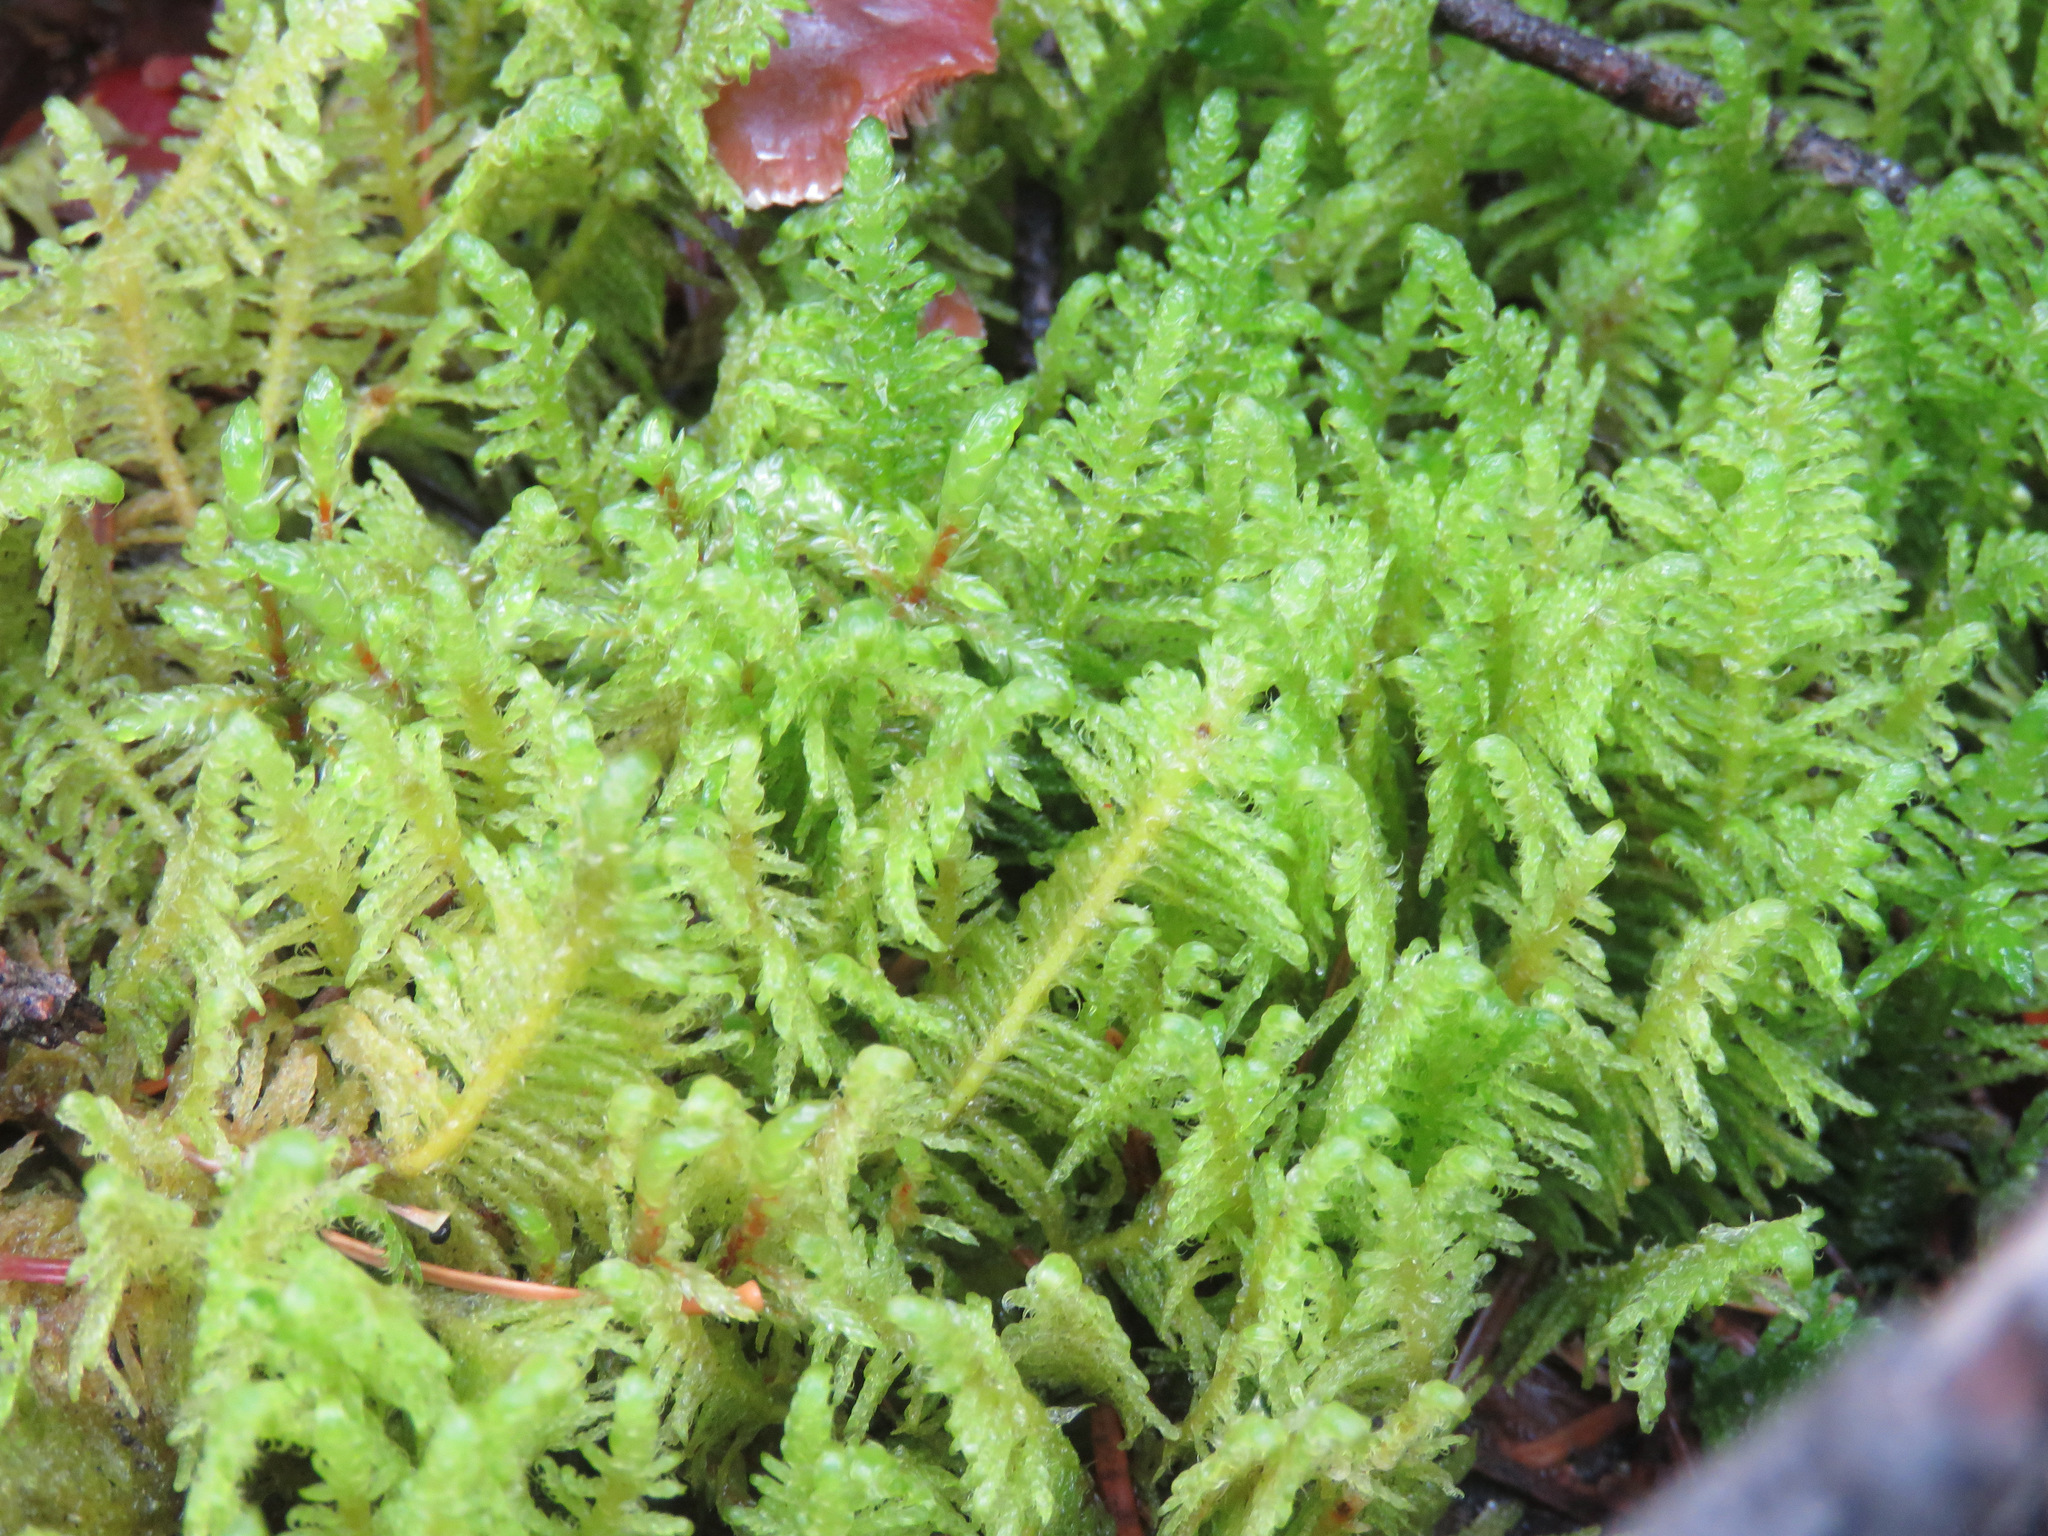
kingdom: Plantae
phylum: Bryophyta
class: Bryopsida
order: Hypnales
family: Pylaisiaceae
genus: Ptilium
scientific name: Ptilium crista-castrensis
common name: Knight's plume moss
